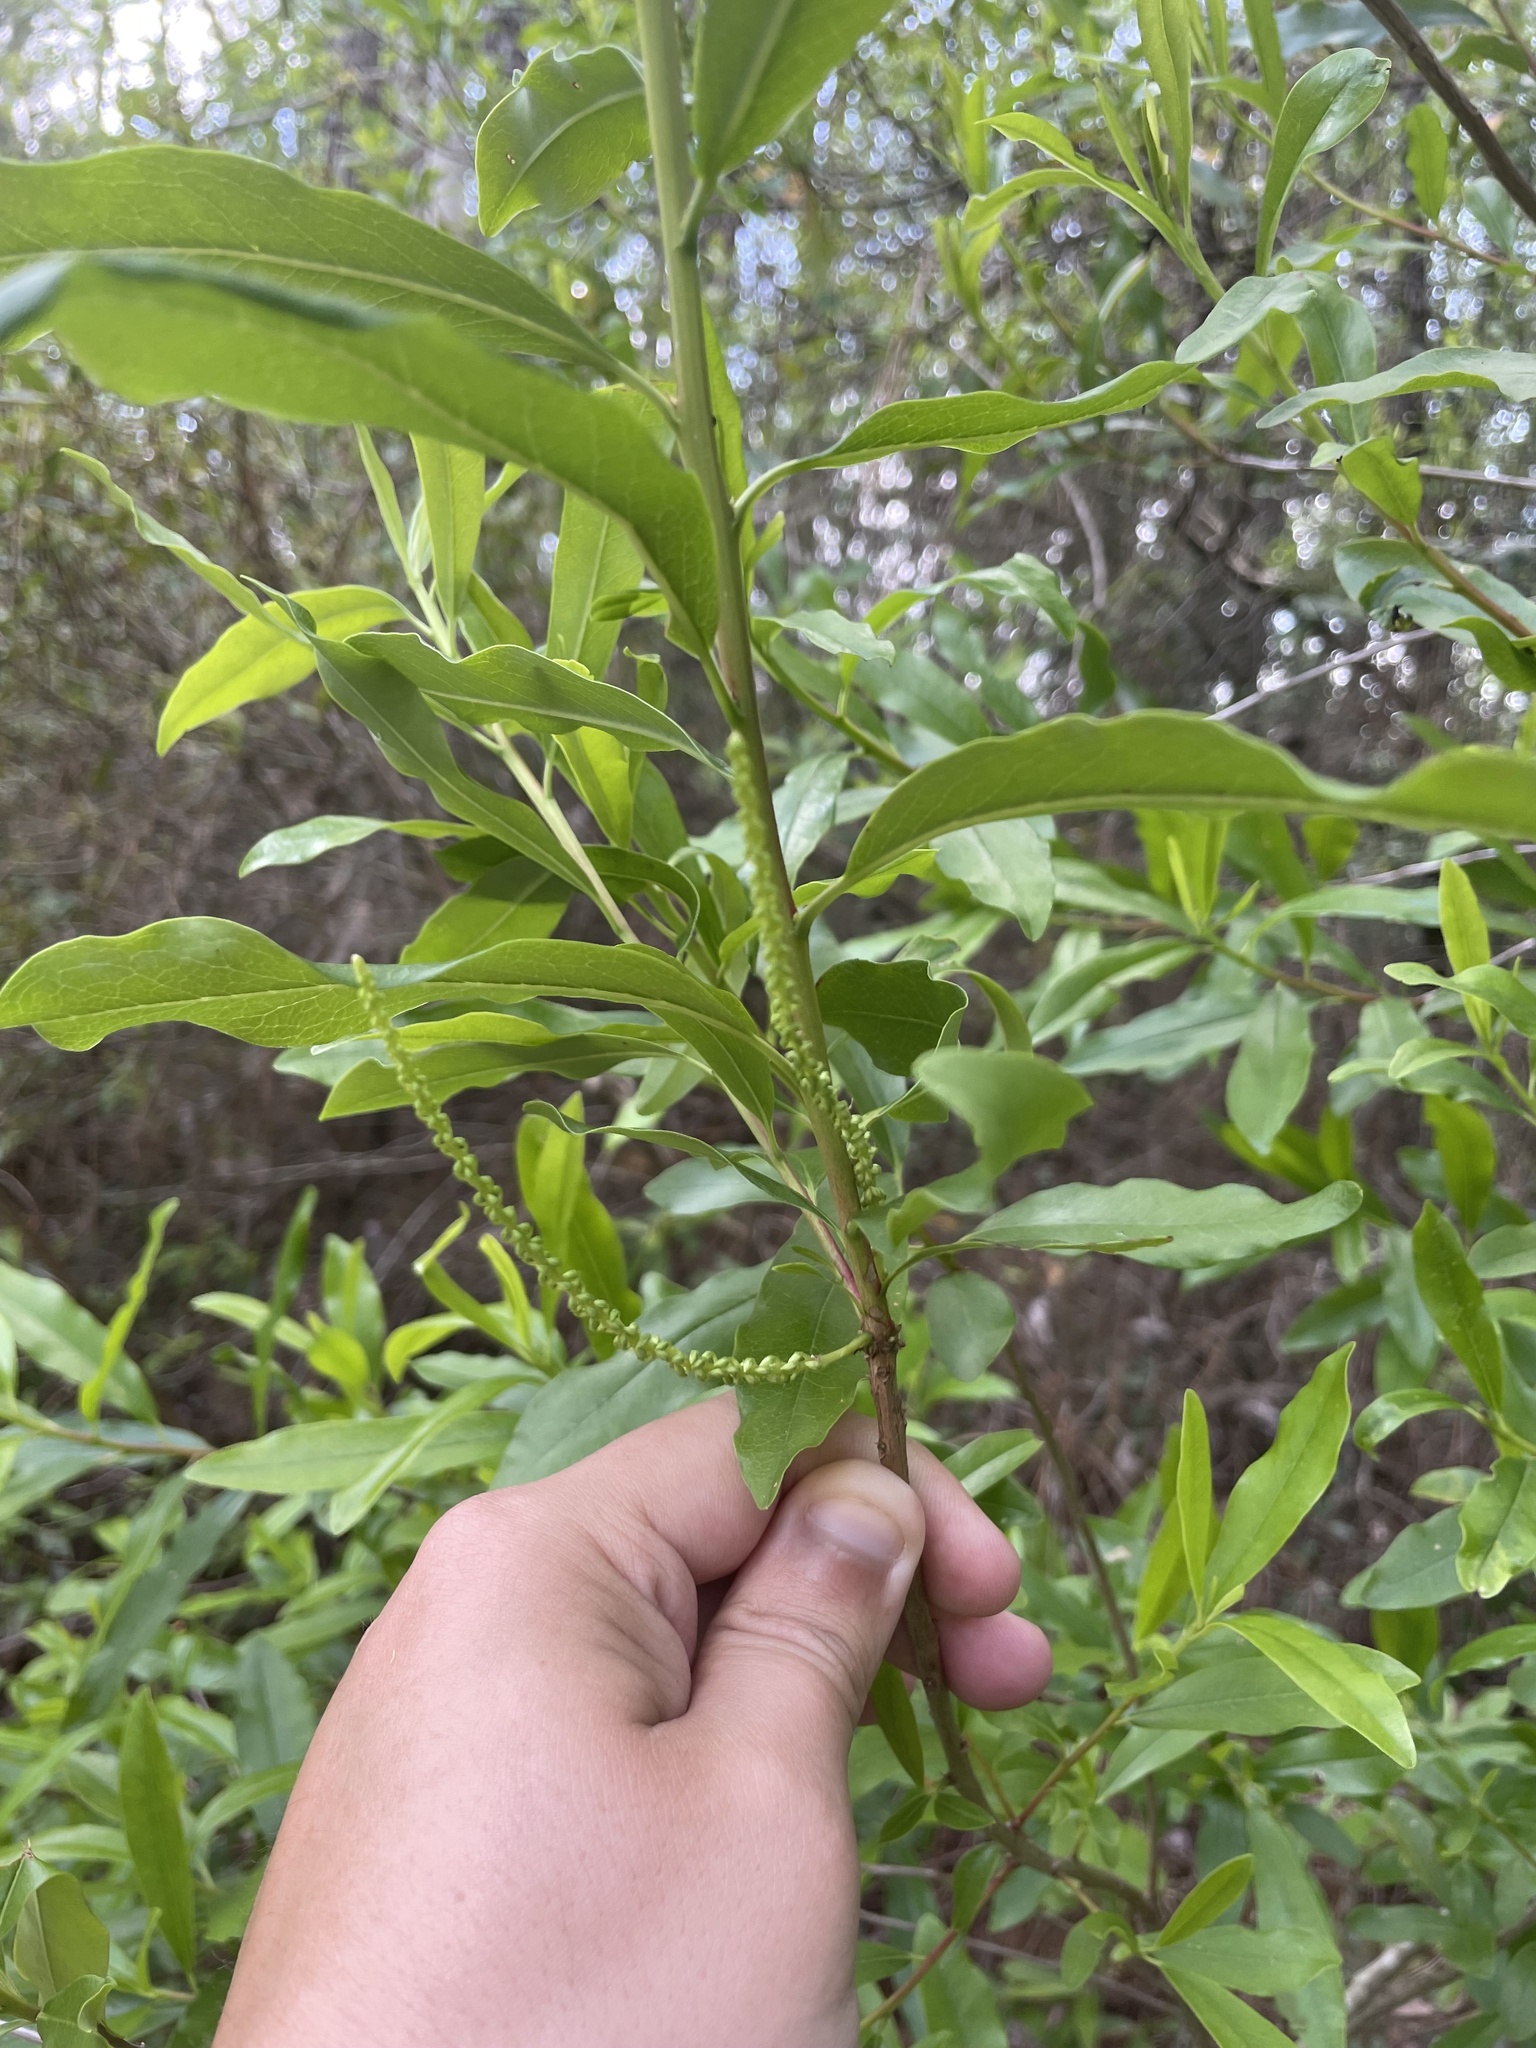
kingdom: Plantae
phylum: Tracheophyta
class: Magnoliopsida
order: Ericales
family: Cyrillaceae
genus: Cyrilla
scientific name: Cyrilla racemiflora
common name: Black titi
